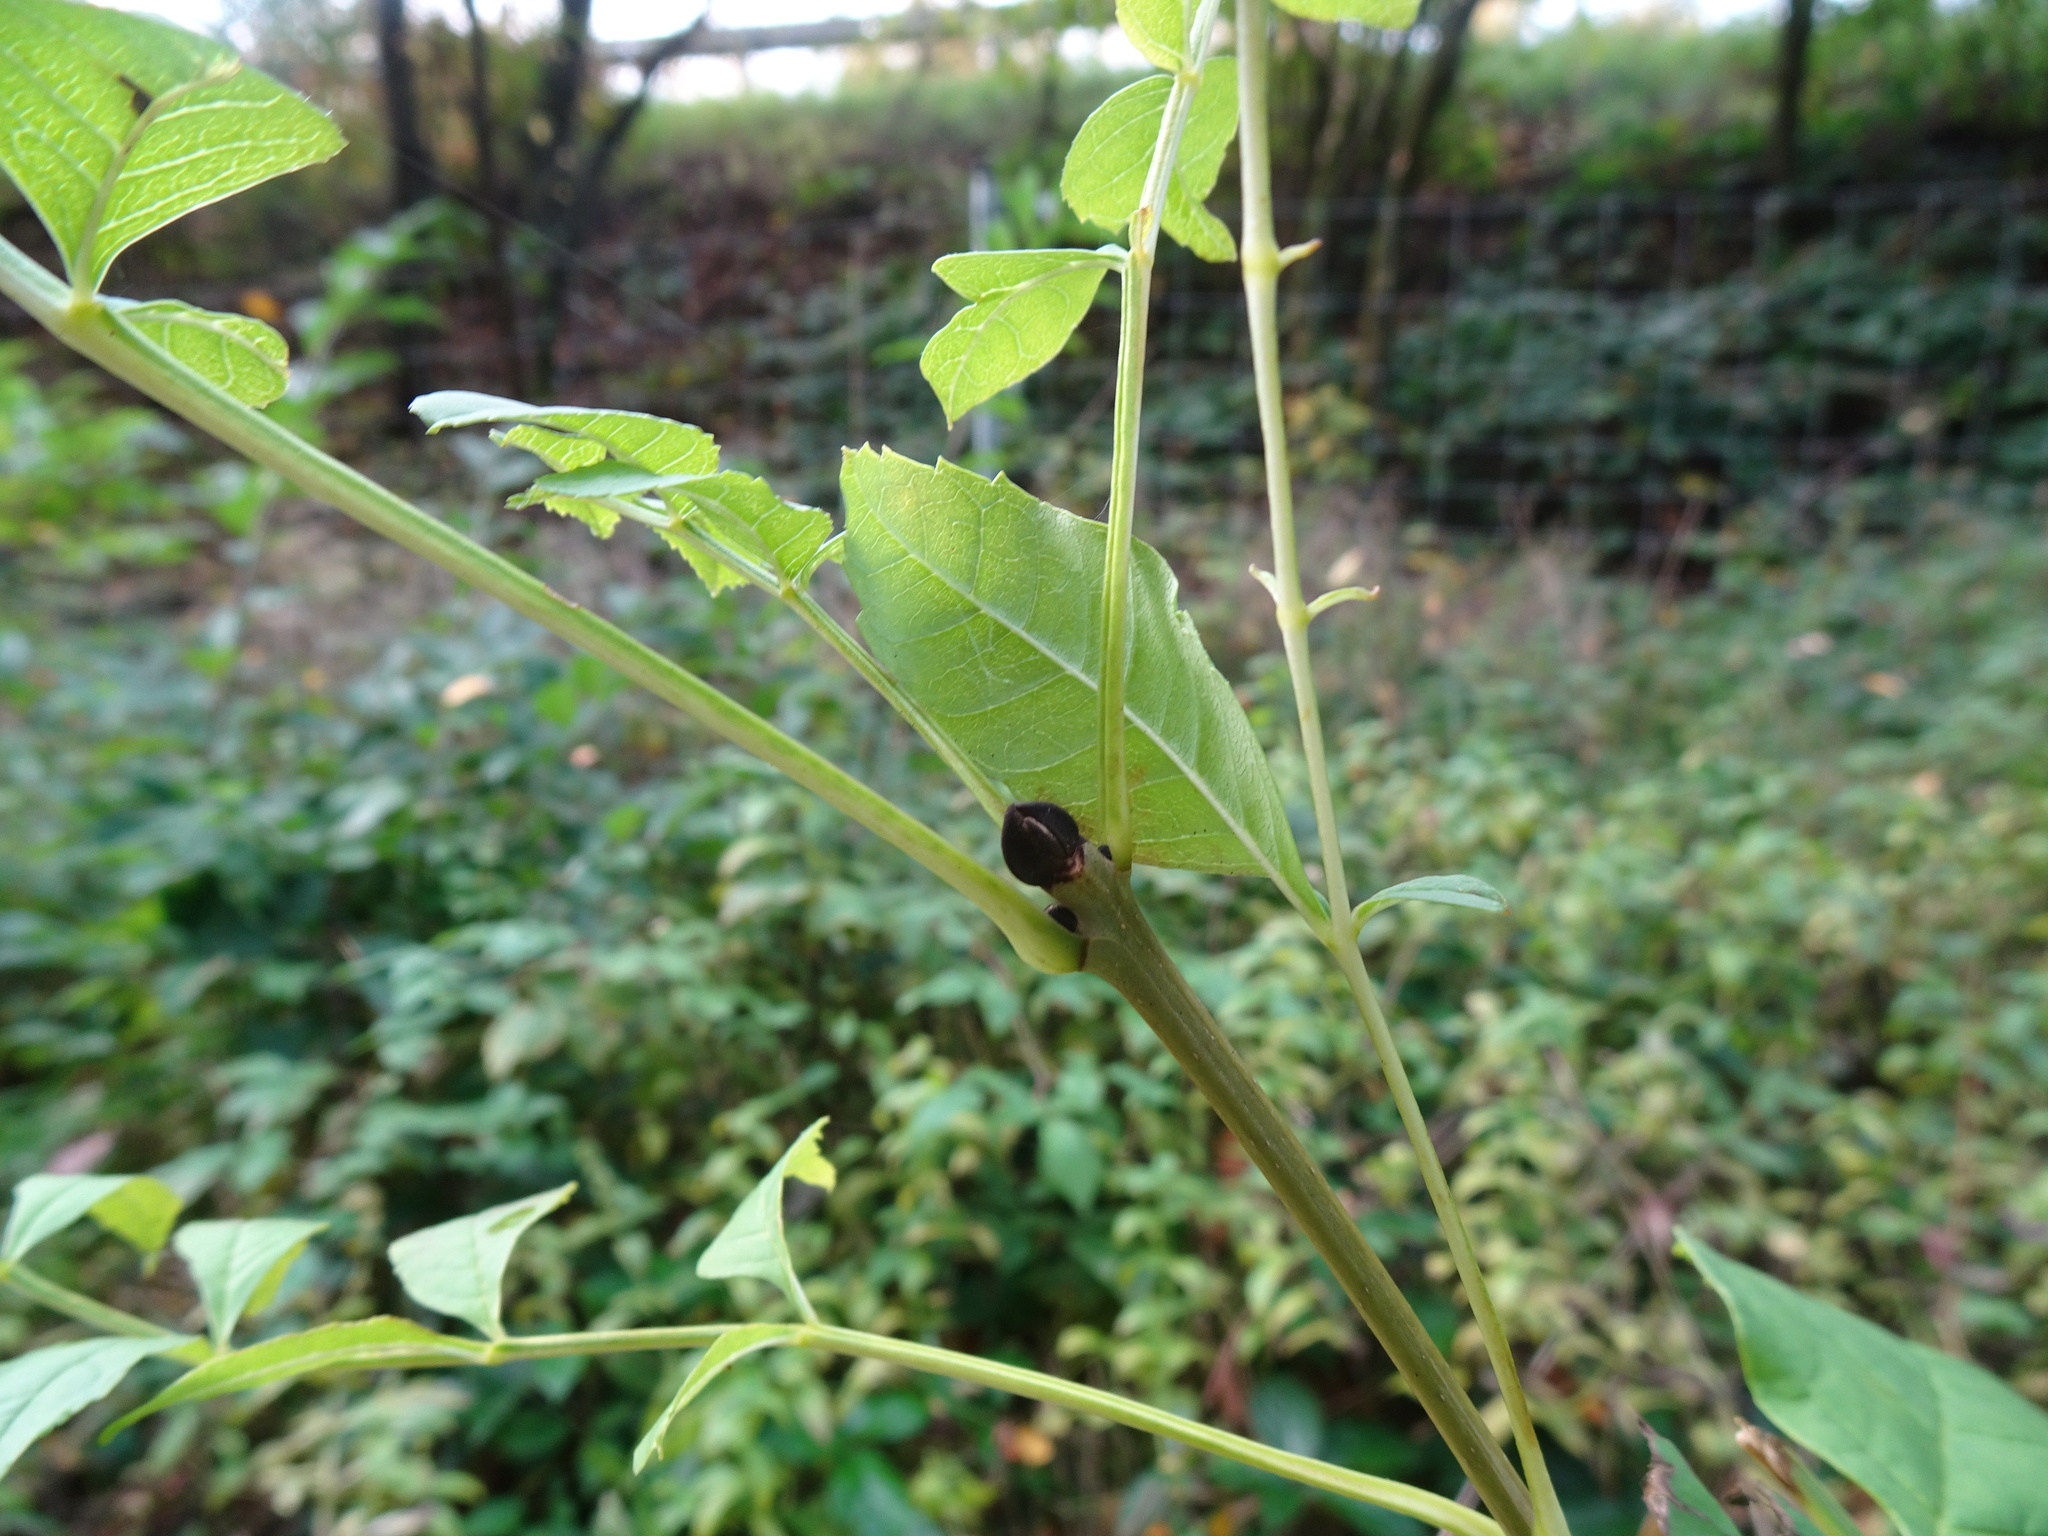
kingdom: Plantae
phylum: Tracheophyta
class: Magnoliopsida
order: Lamiales
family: Oleaceae
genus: Fraxinus
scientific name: Fraxinus excelsior
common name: European ash
